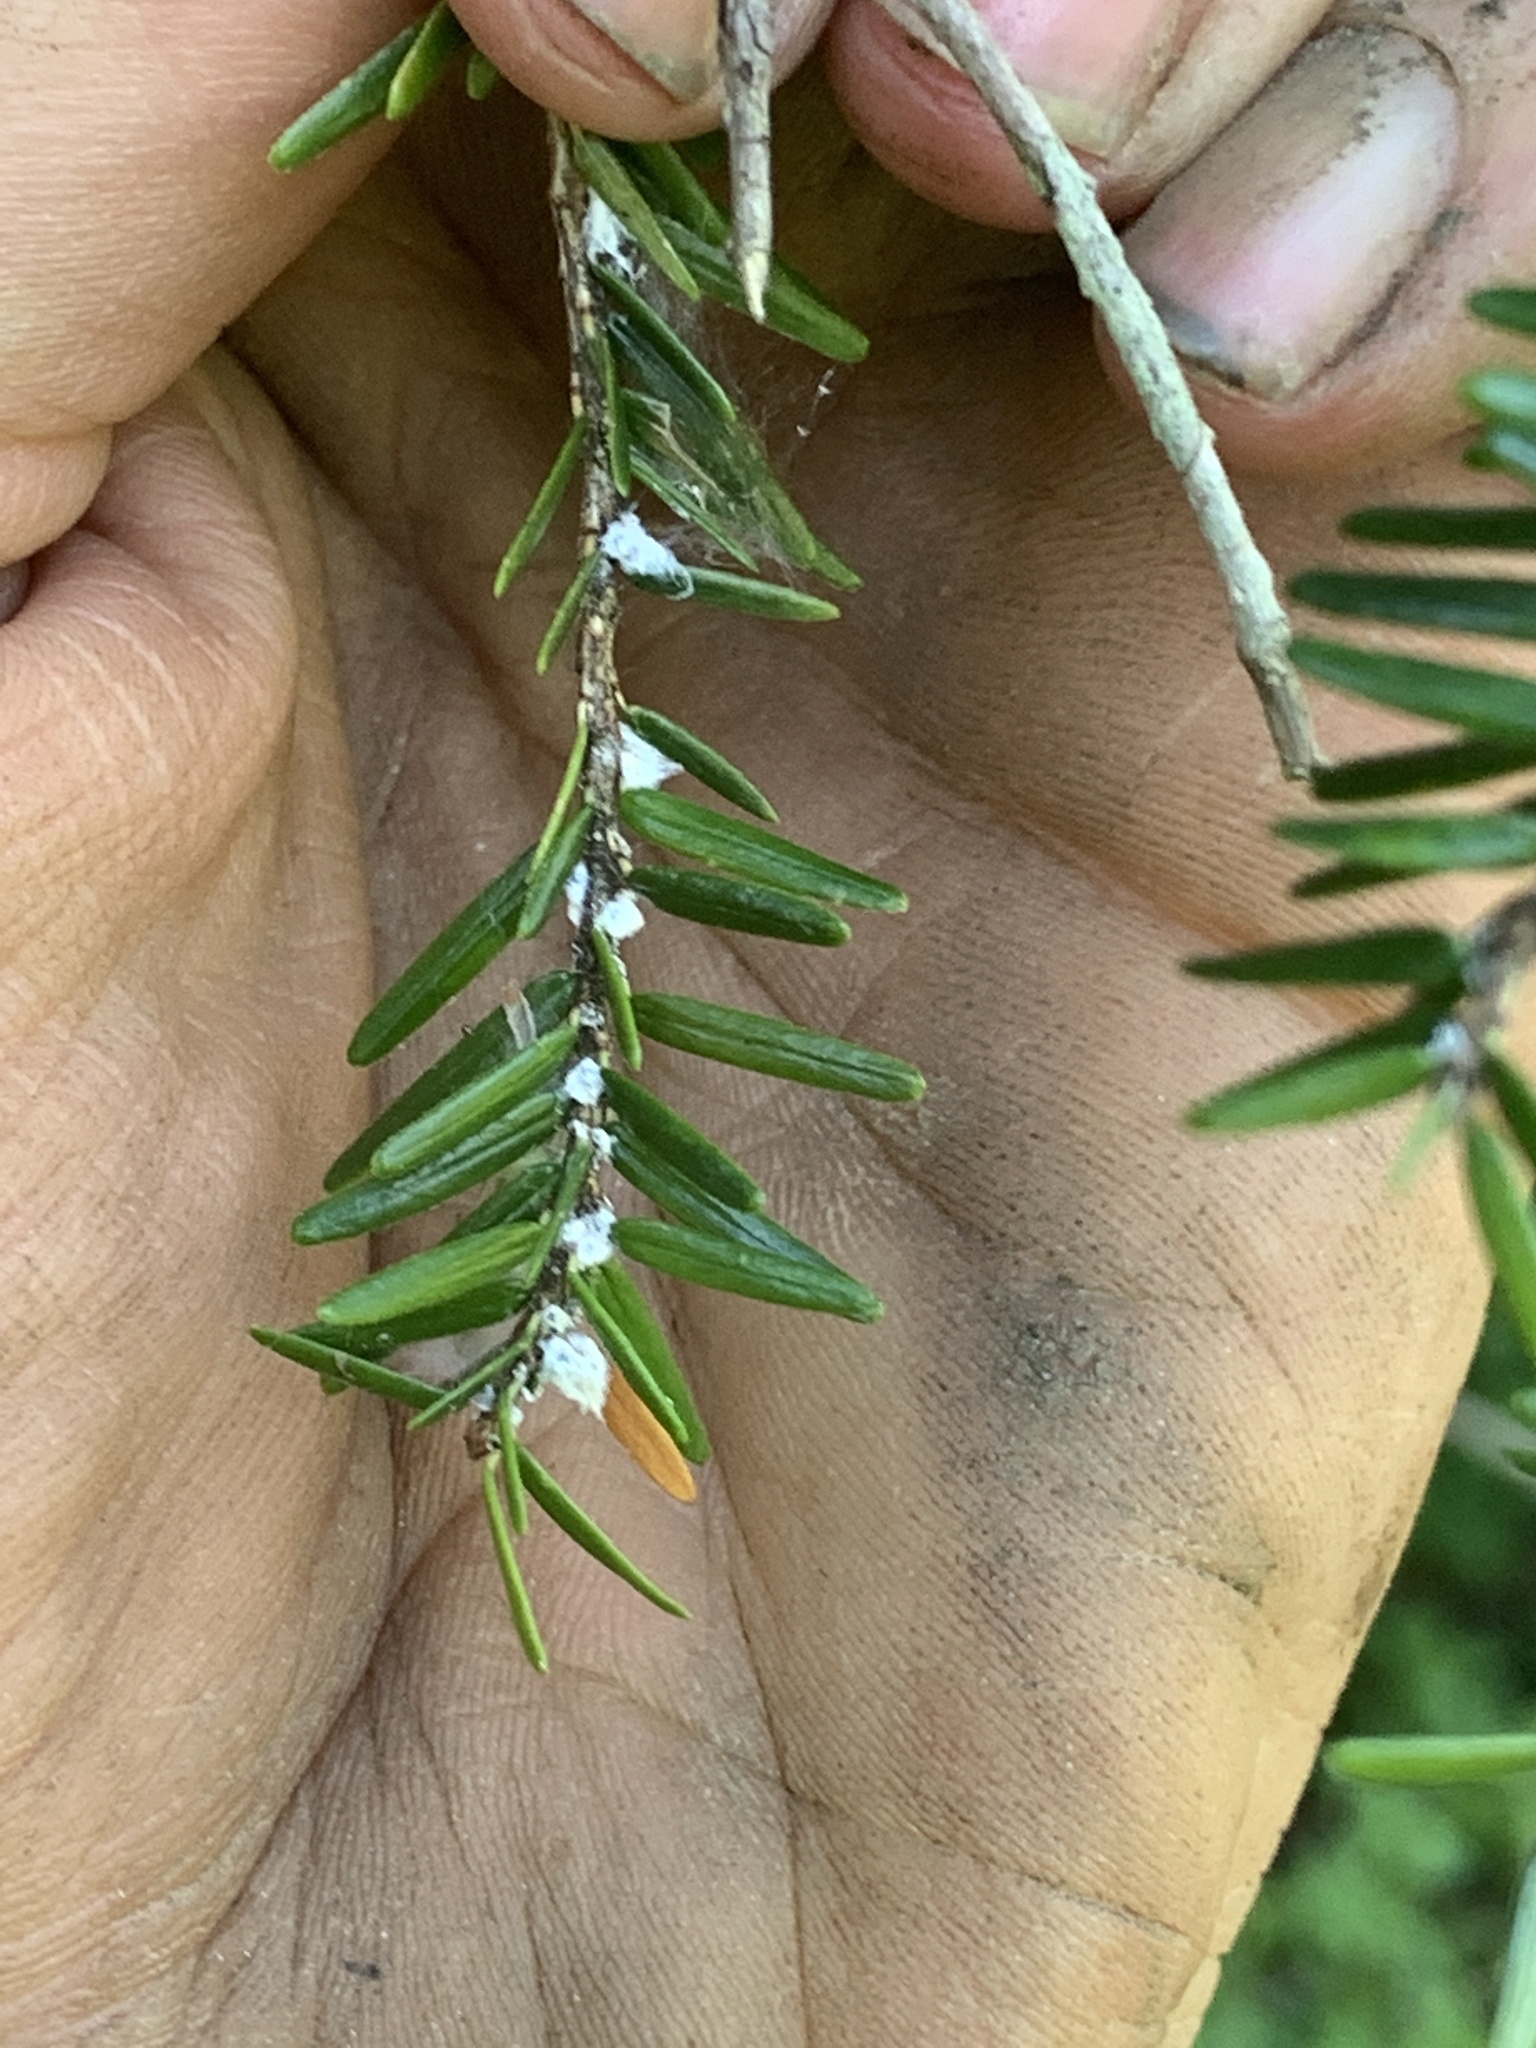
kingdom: Animalia
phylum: Arthropoda
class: Insecta
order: Hemiptera
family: Adelgidae
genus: Adelges
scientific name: Adelges tsugae
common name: Hemlock woolly adelgid
